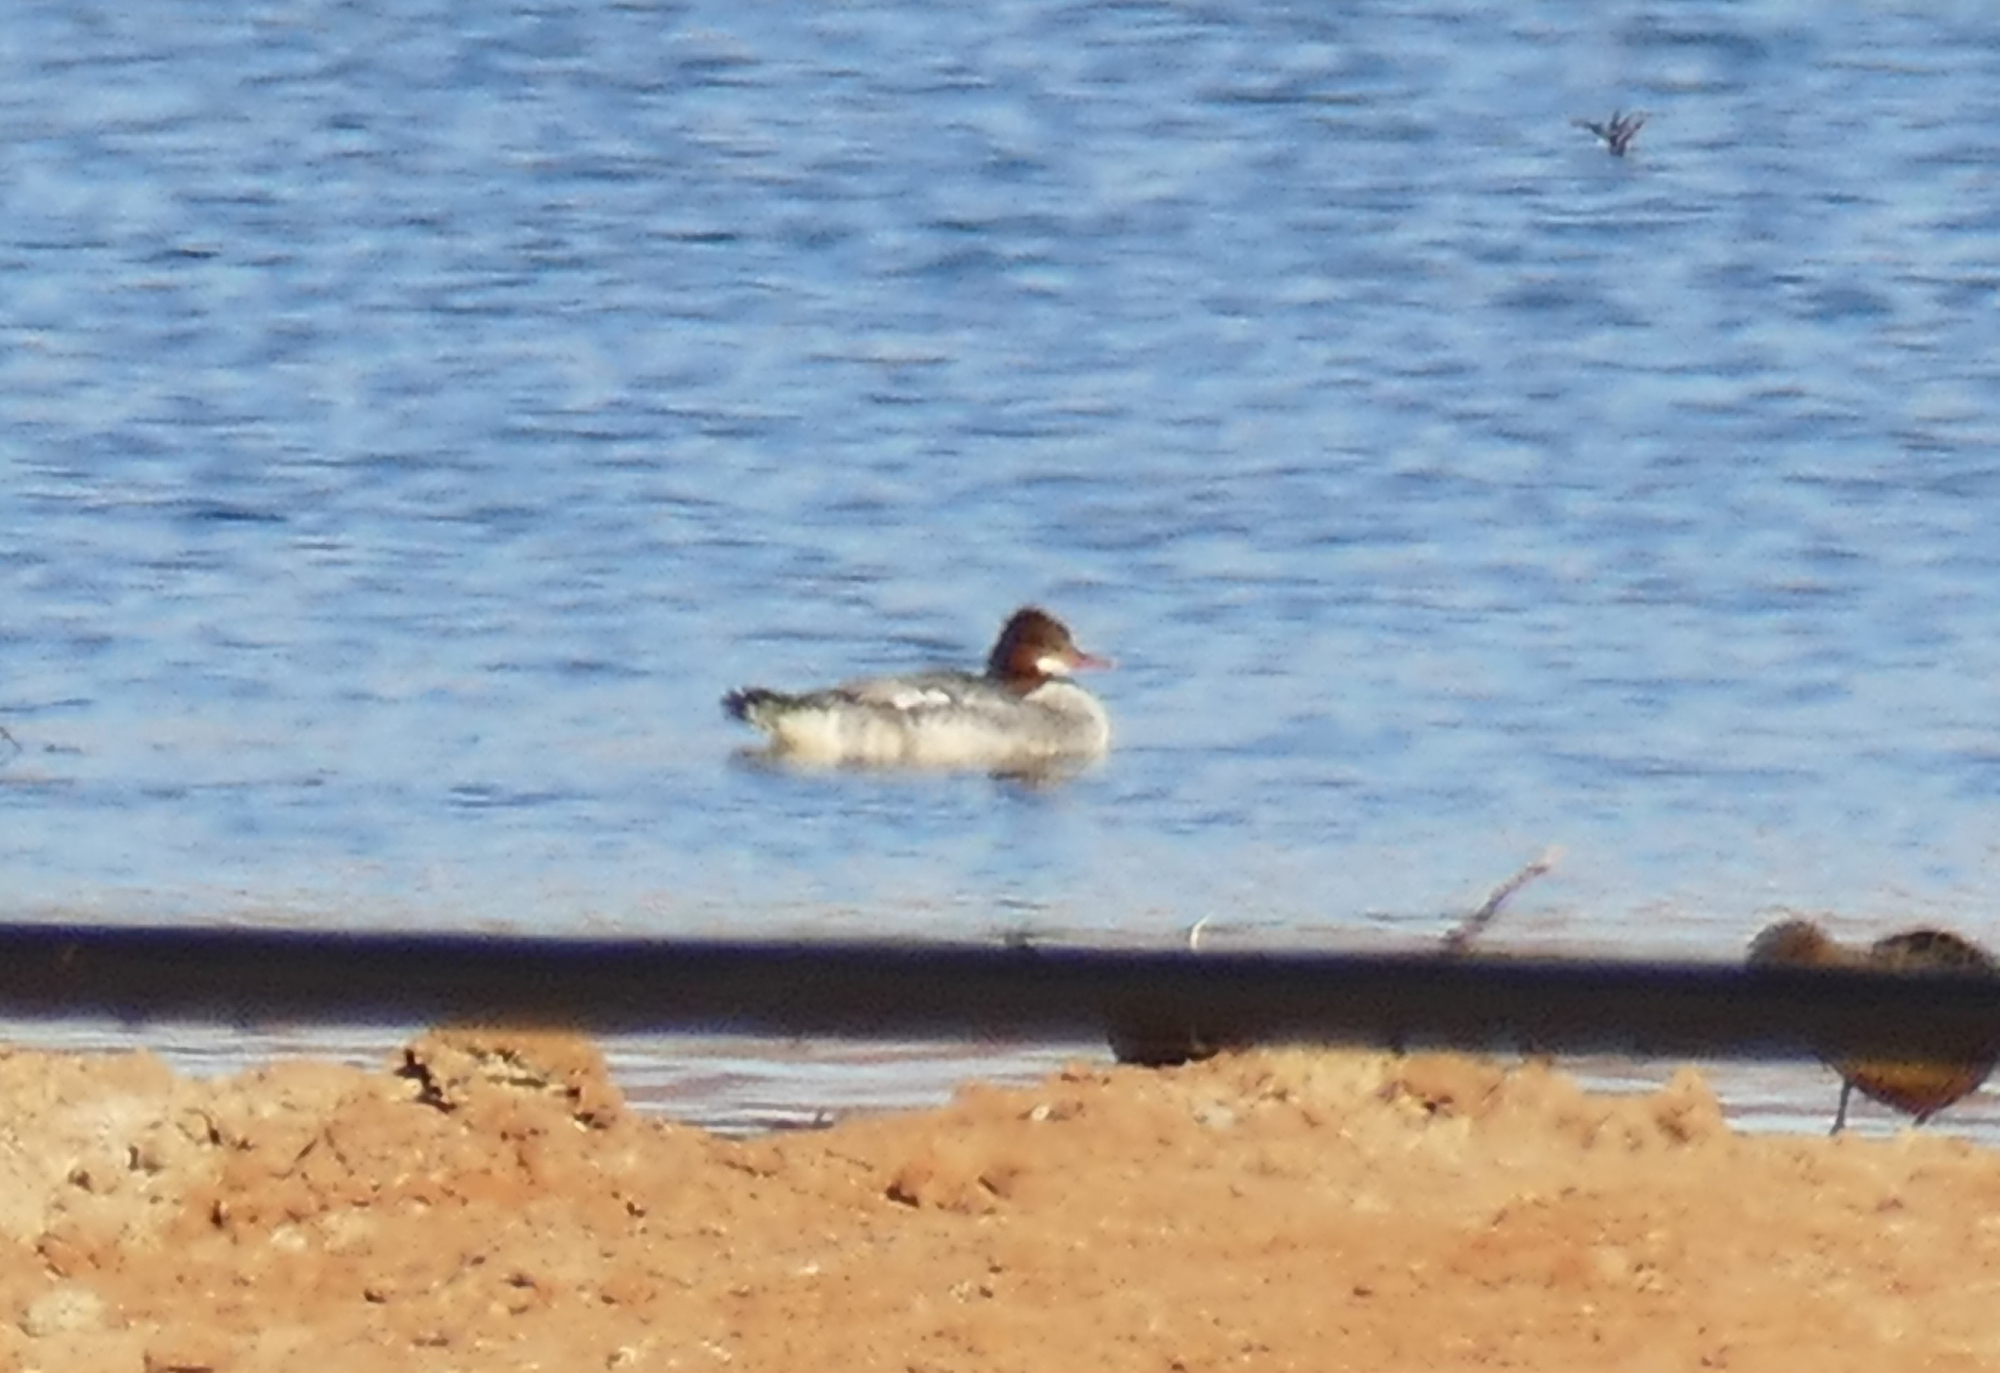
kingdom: Animalia
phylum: Chordata
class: Aves
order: Anseriformes
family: Anatidae
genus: Mergus
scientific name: Mergus merganser
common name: Common merganser
